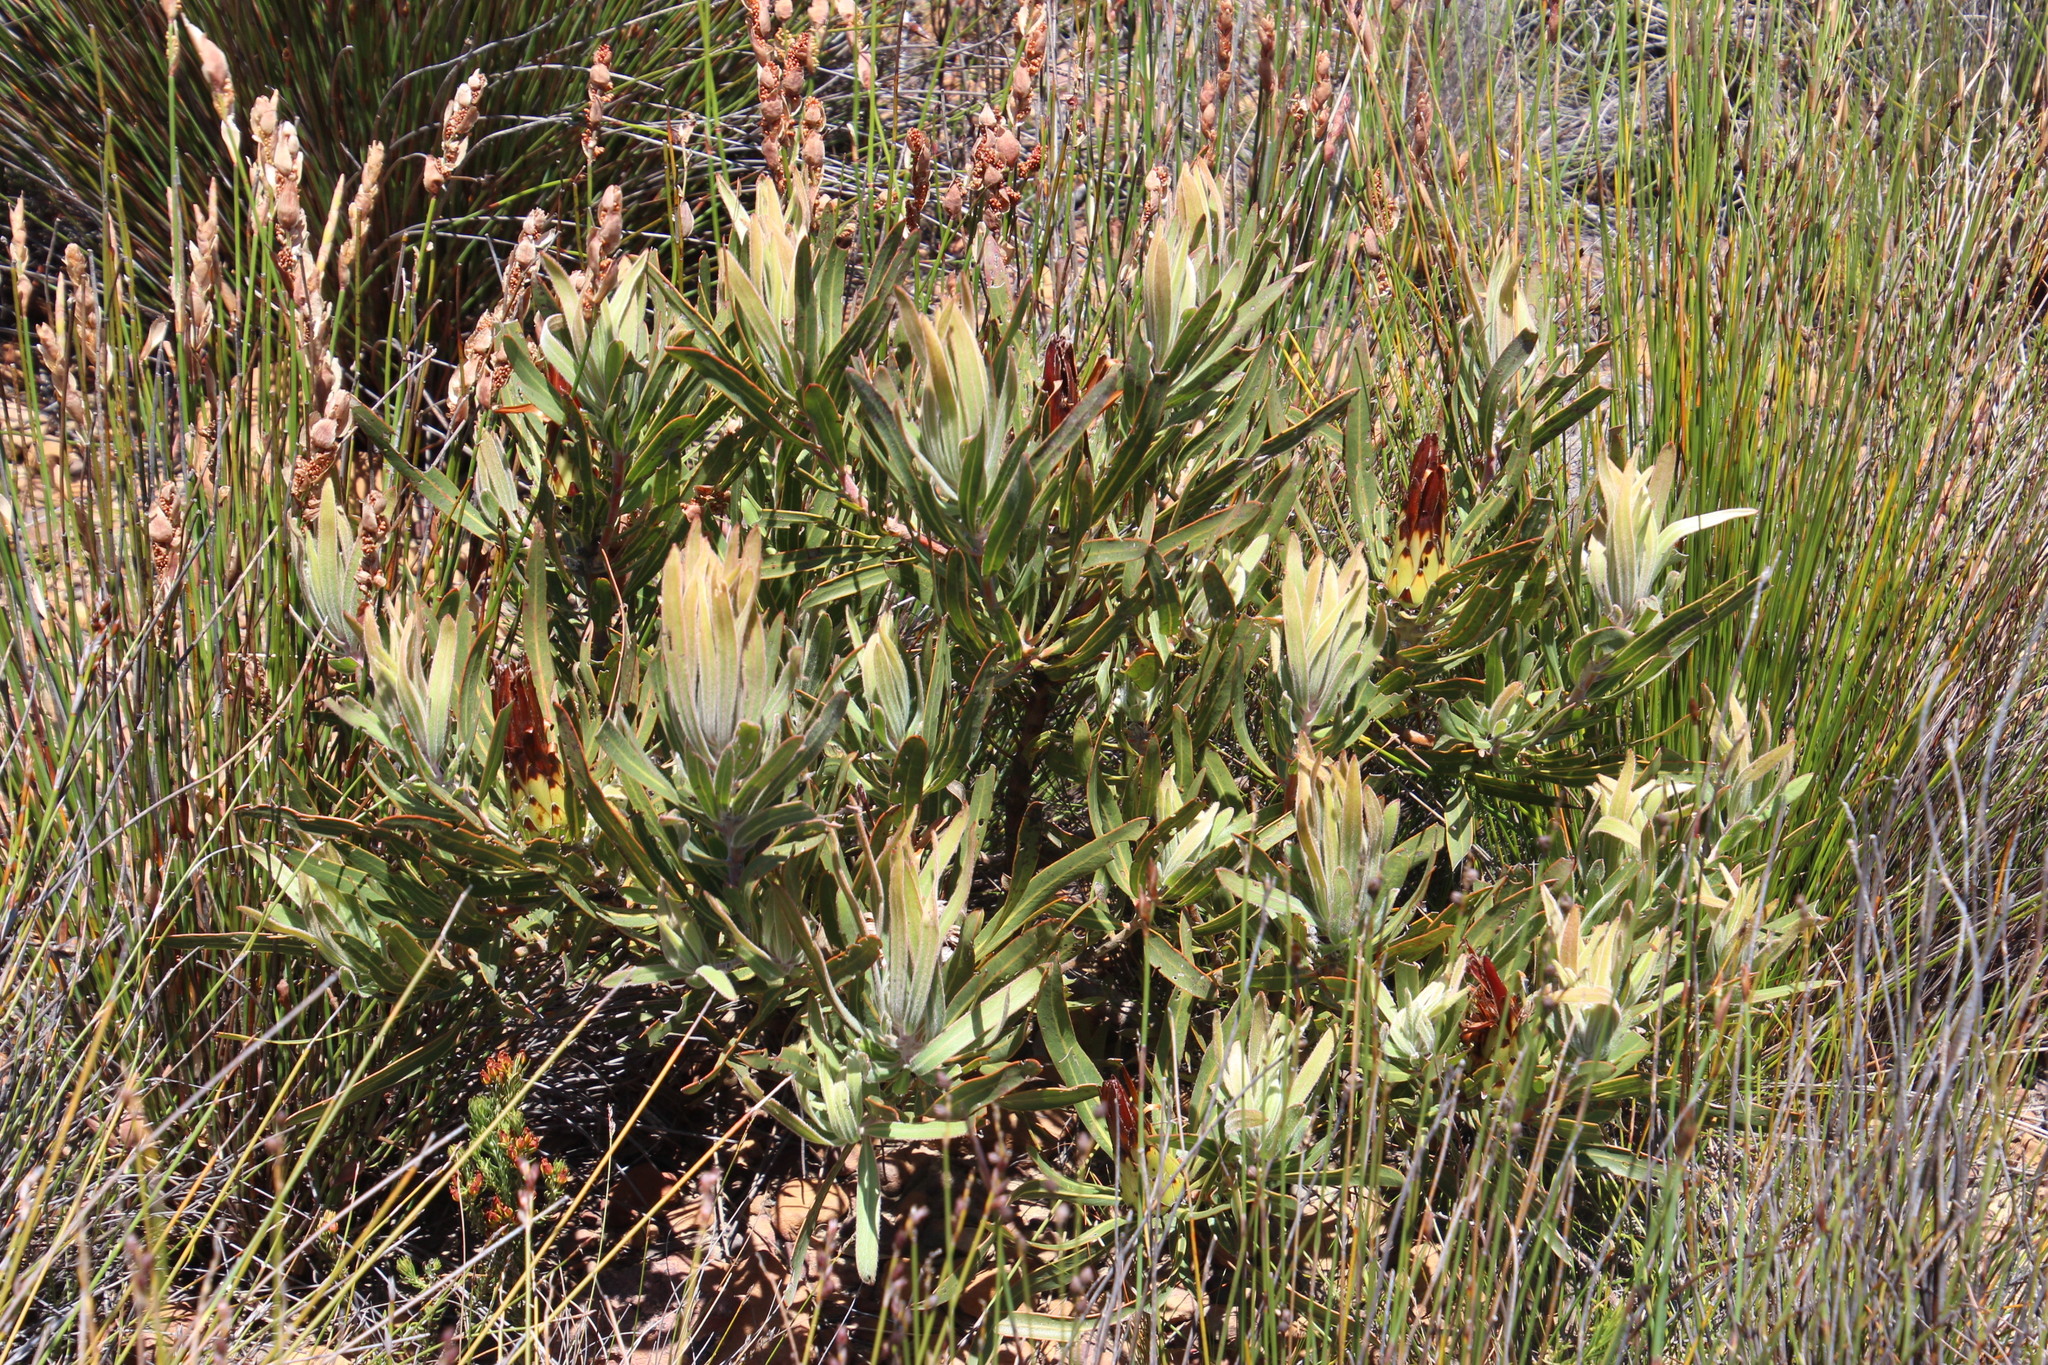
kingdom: Plantae
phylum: Tracheophyta
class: Magnoliopsida
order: Proteales
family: Proteaceae
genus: Protea
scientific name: Protea burchellii
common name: Burchell's sugarbush
